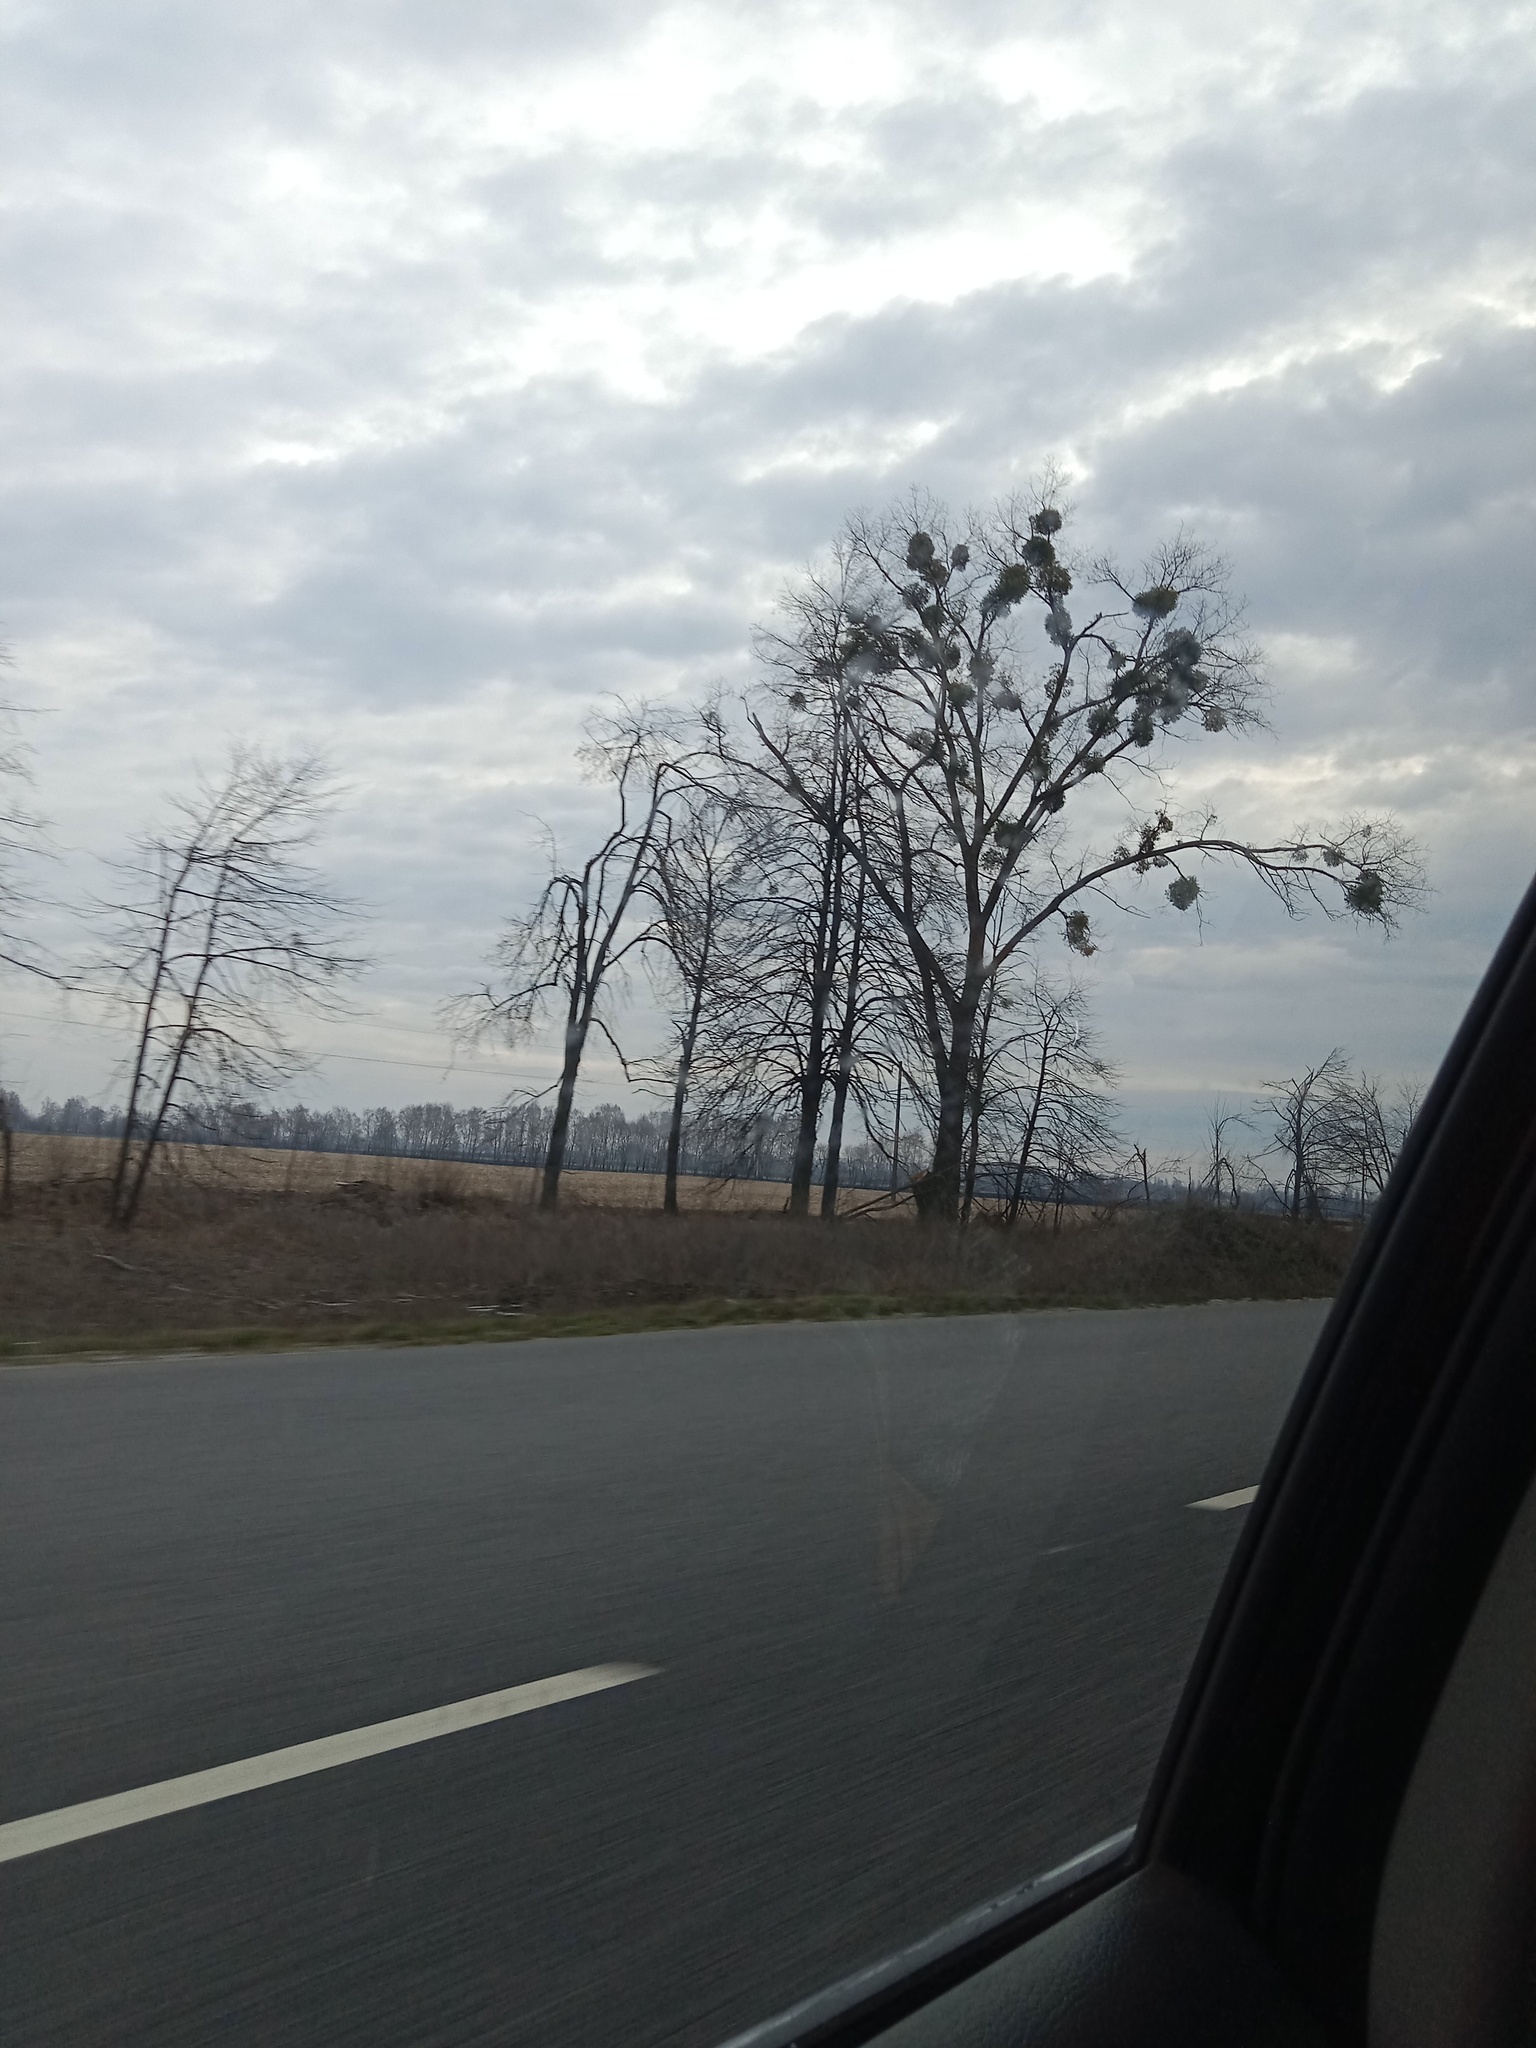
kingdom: Plantae
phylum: Tracheophyta
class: Magnoliopsida
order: Santalales
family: Viscaceae
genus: Viscum
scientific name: Viscum album
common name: Mistletoe
